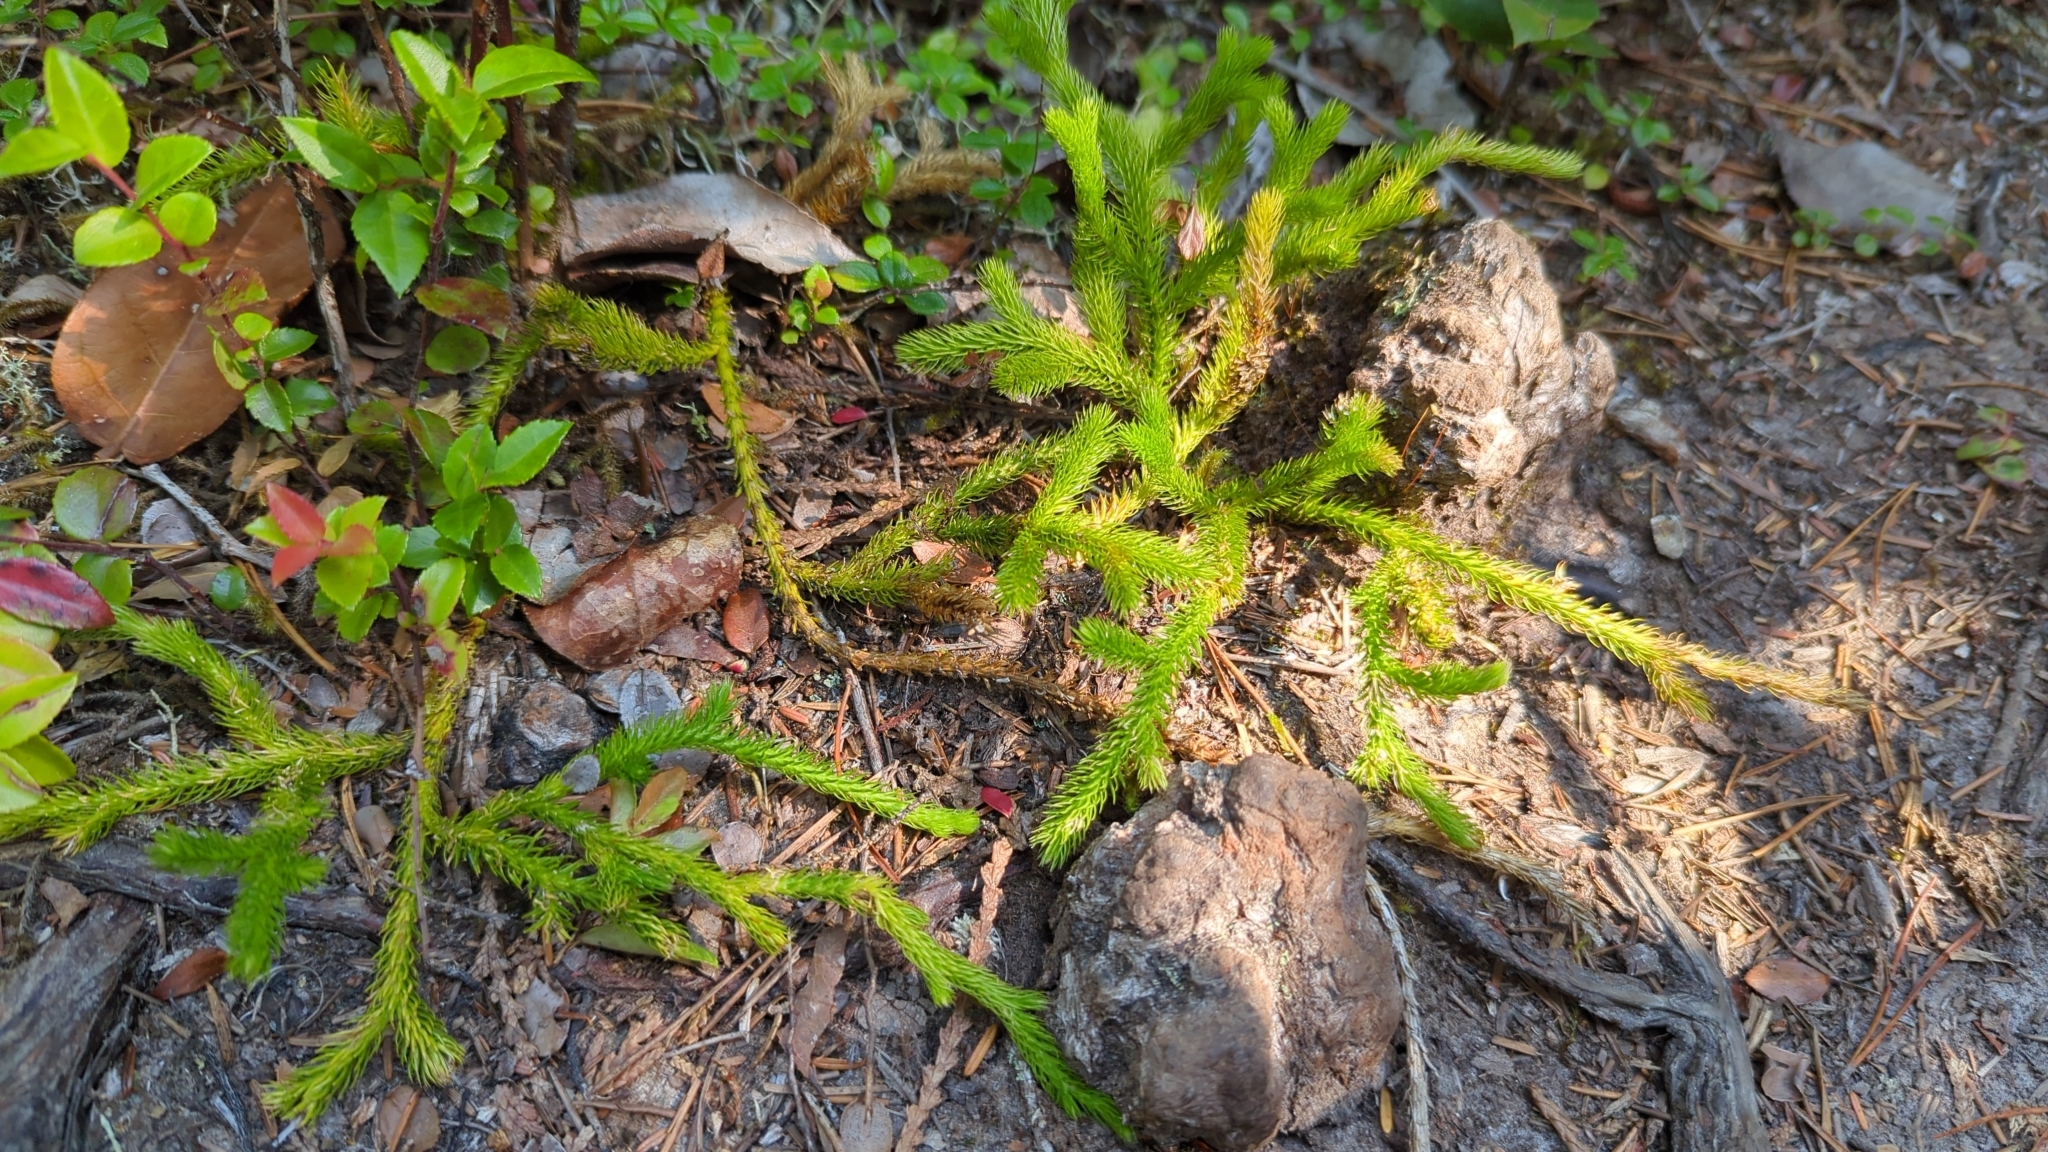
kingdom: Plantae
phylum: Tracheophyta
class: Lycopodiopsida
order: Lycopodiales
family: Lycopodiaceae
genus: Lycopodium
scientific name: Lycopodium clavatum
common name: Stag's-horn clubmoss
